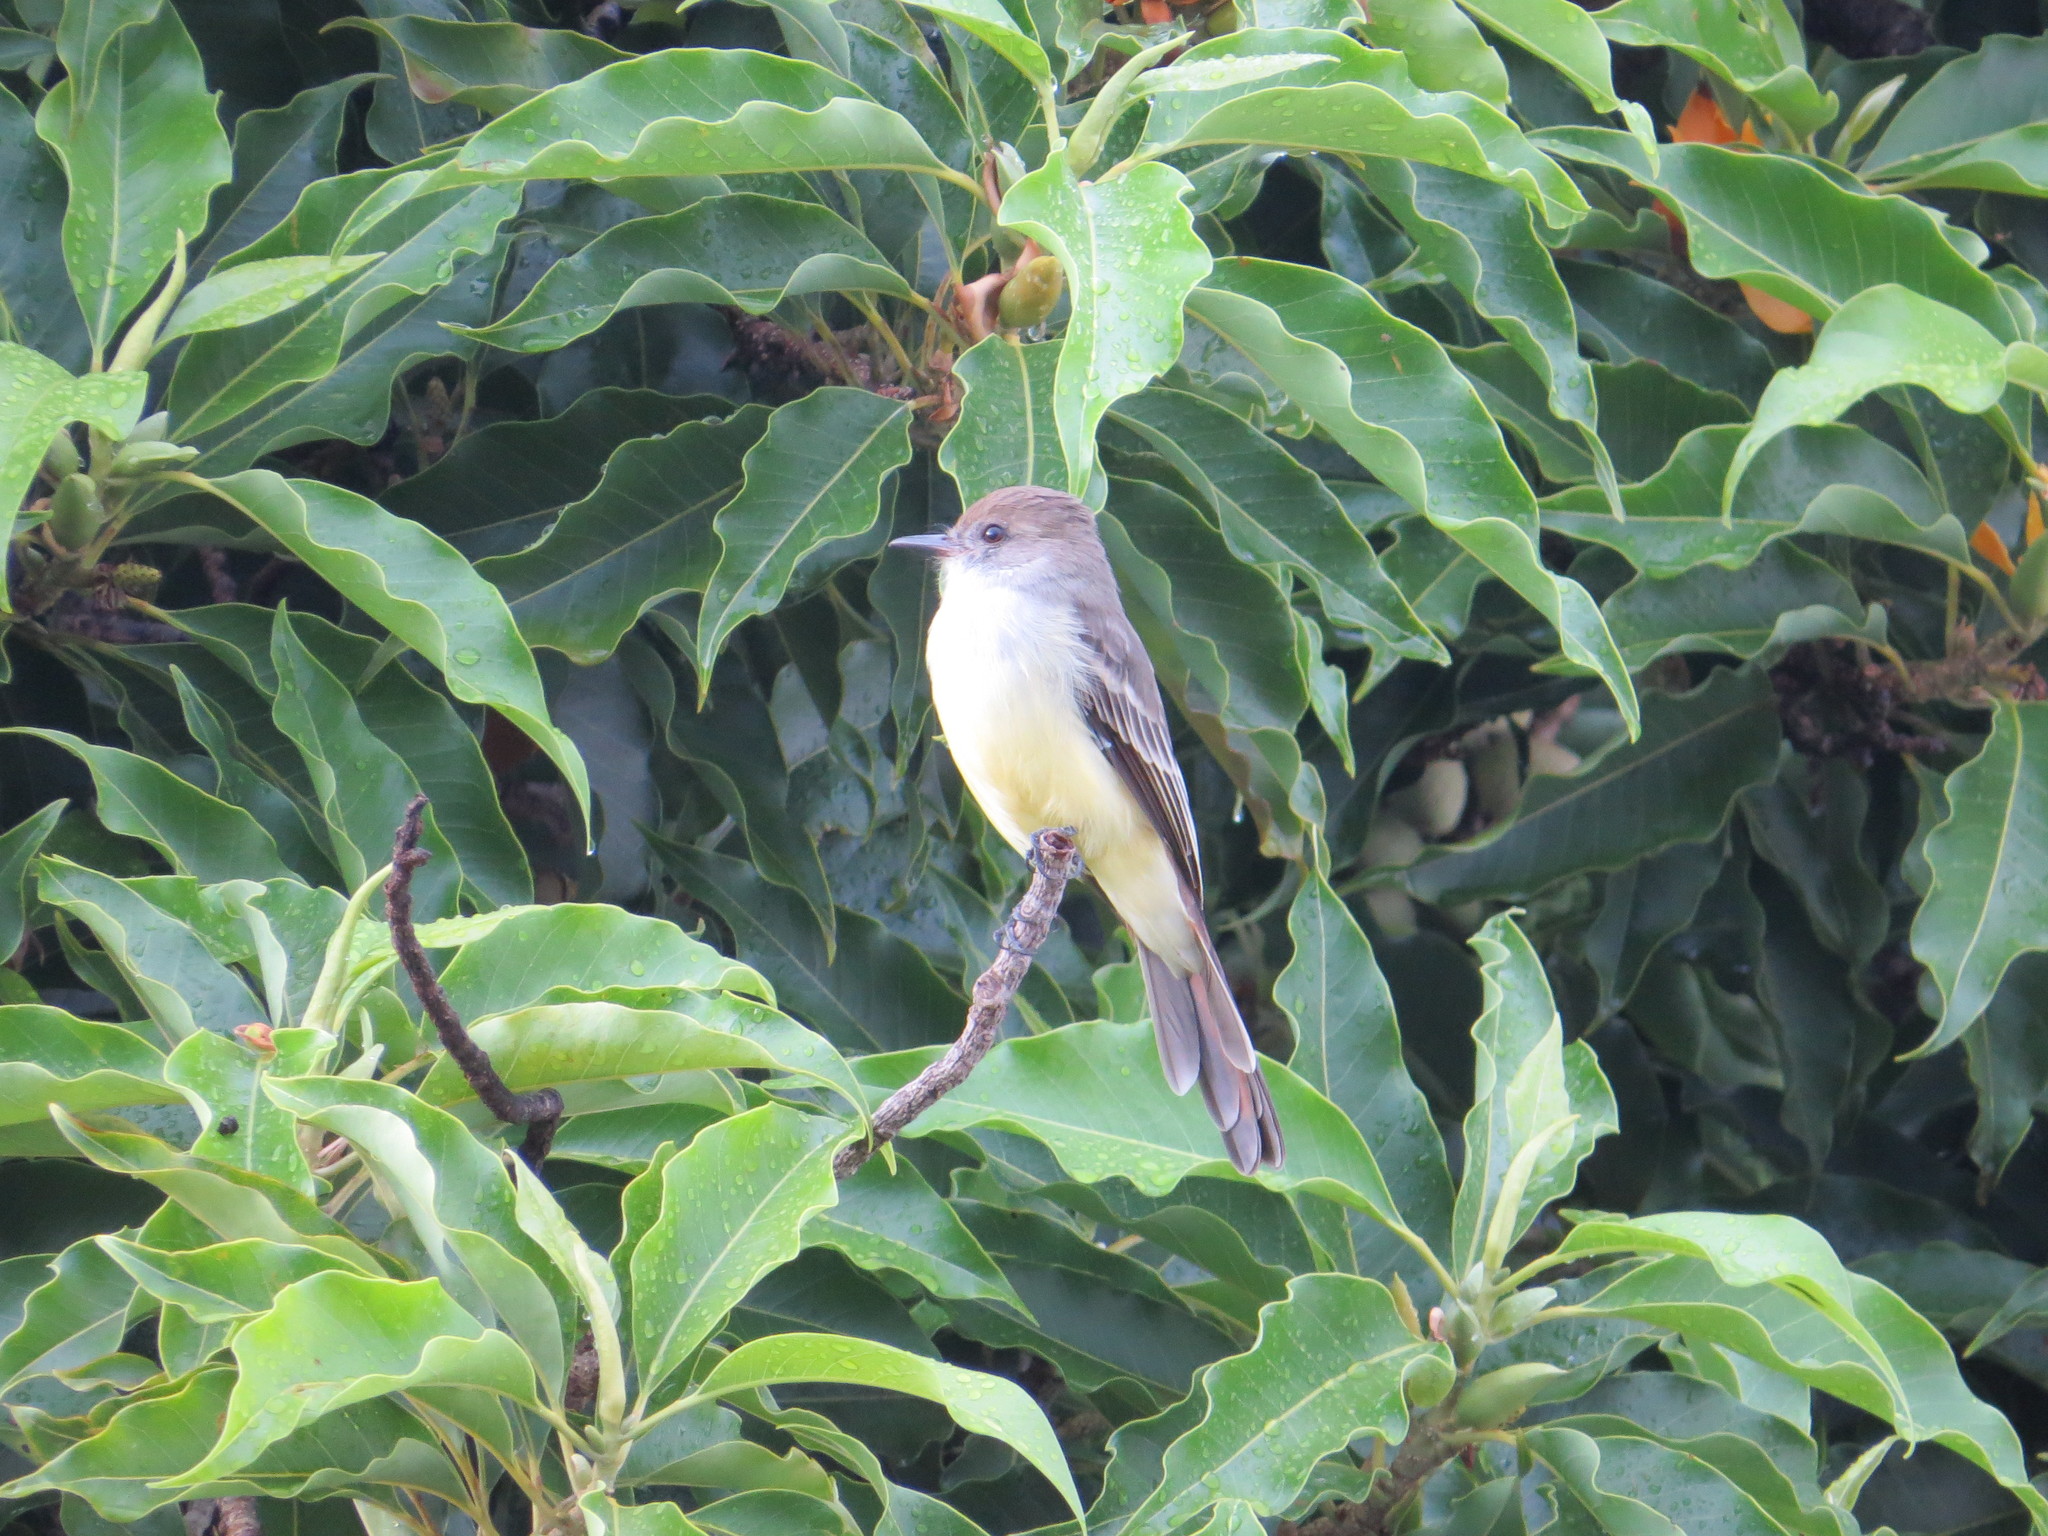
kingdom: Animalia
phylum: Chordata
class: Aves
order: Passeriformes
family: Tyrannidae
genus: Myiarchus
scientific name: Myiarchus tyrannulus
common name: Brown-crested flycatcher
